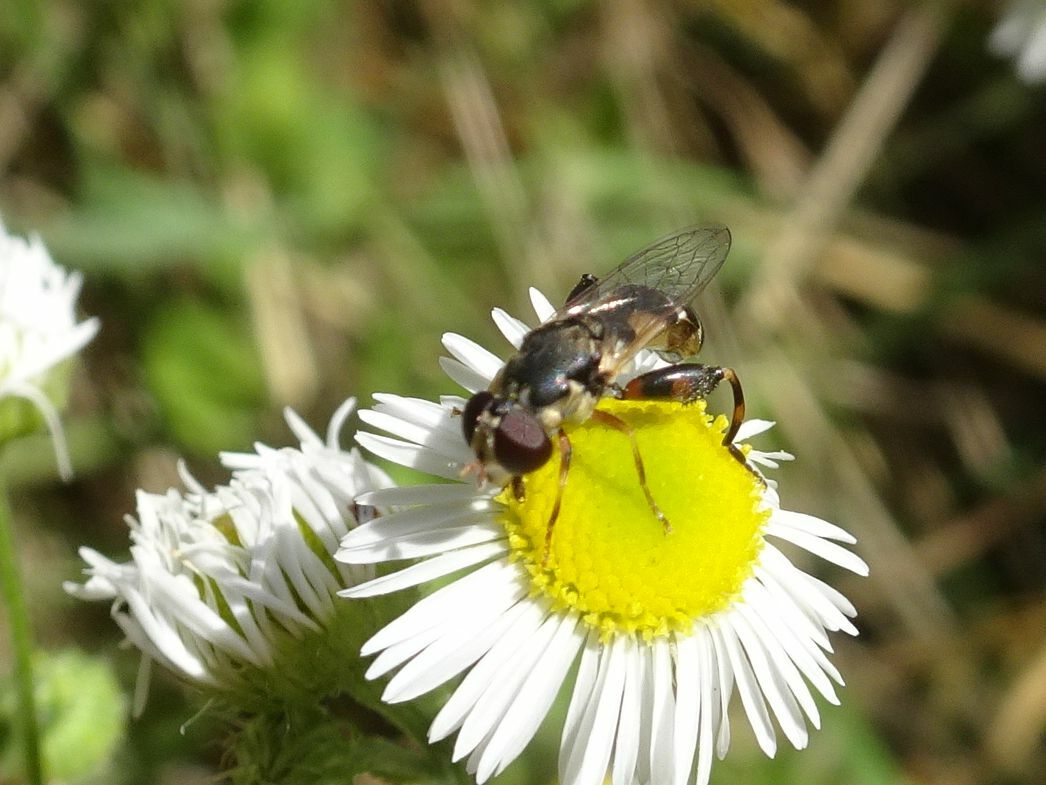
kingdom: Animalia
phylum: Arthropoda
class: Insecta
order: Diptera
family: Syrphidae
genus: Syritta
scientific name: Syritta pipiens
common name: Hover fly
